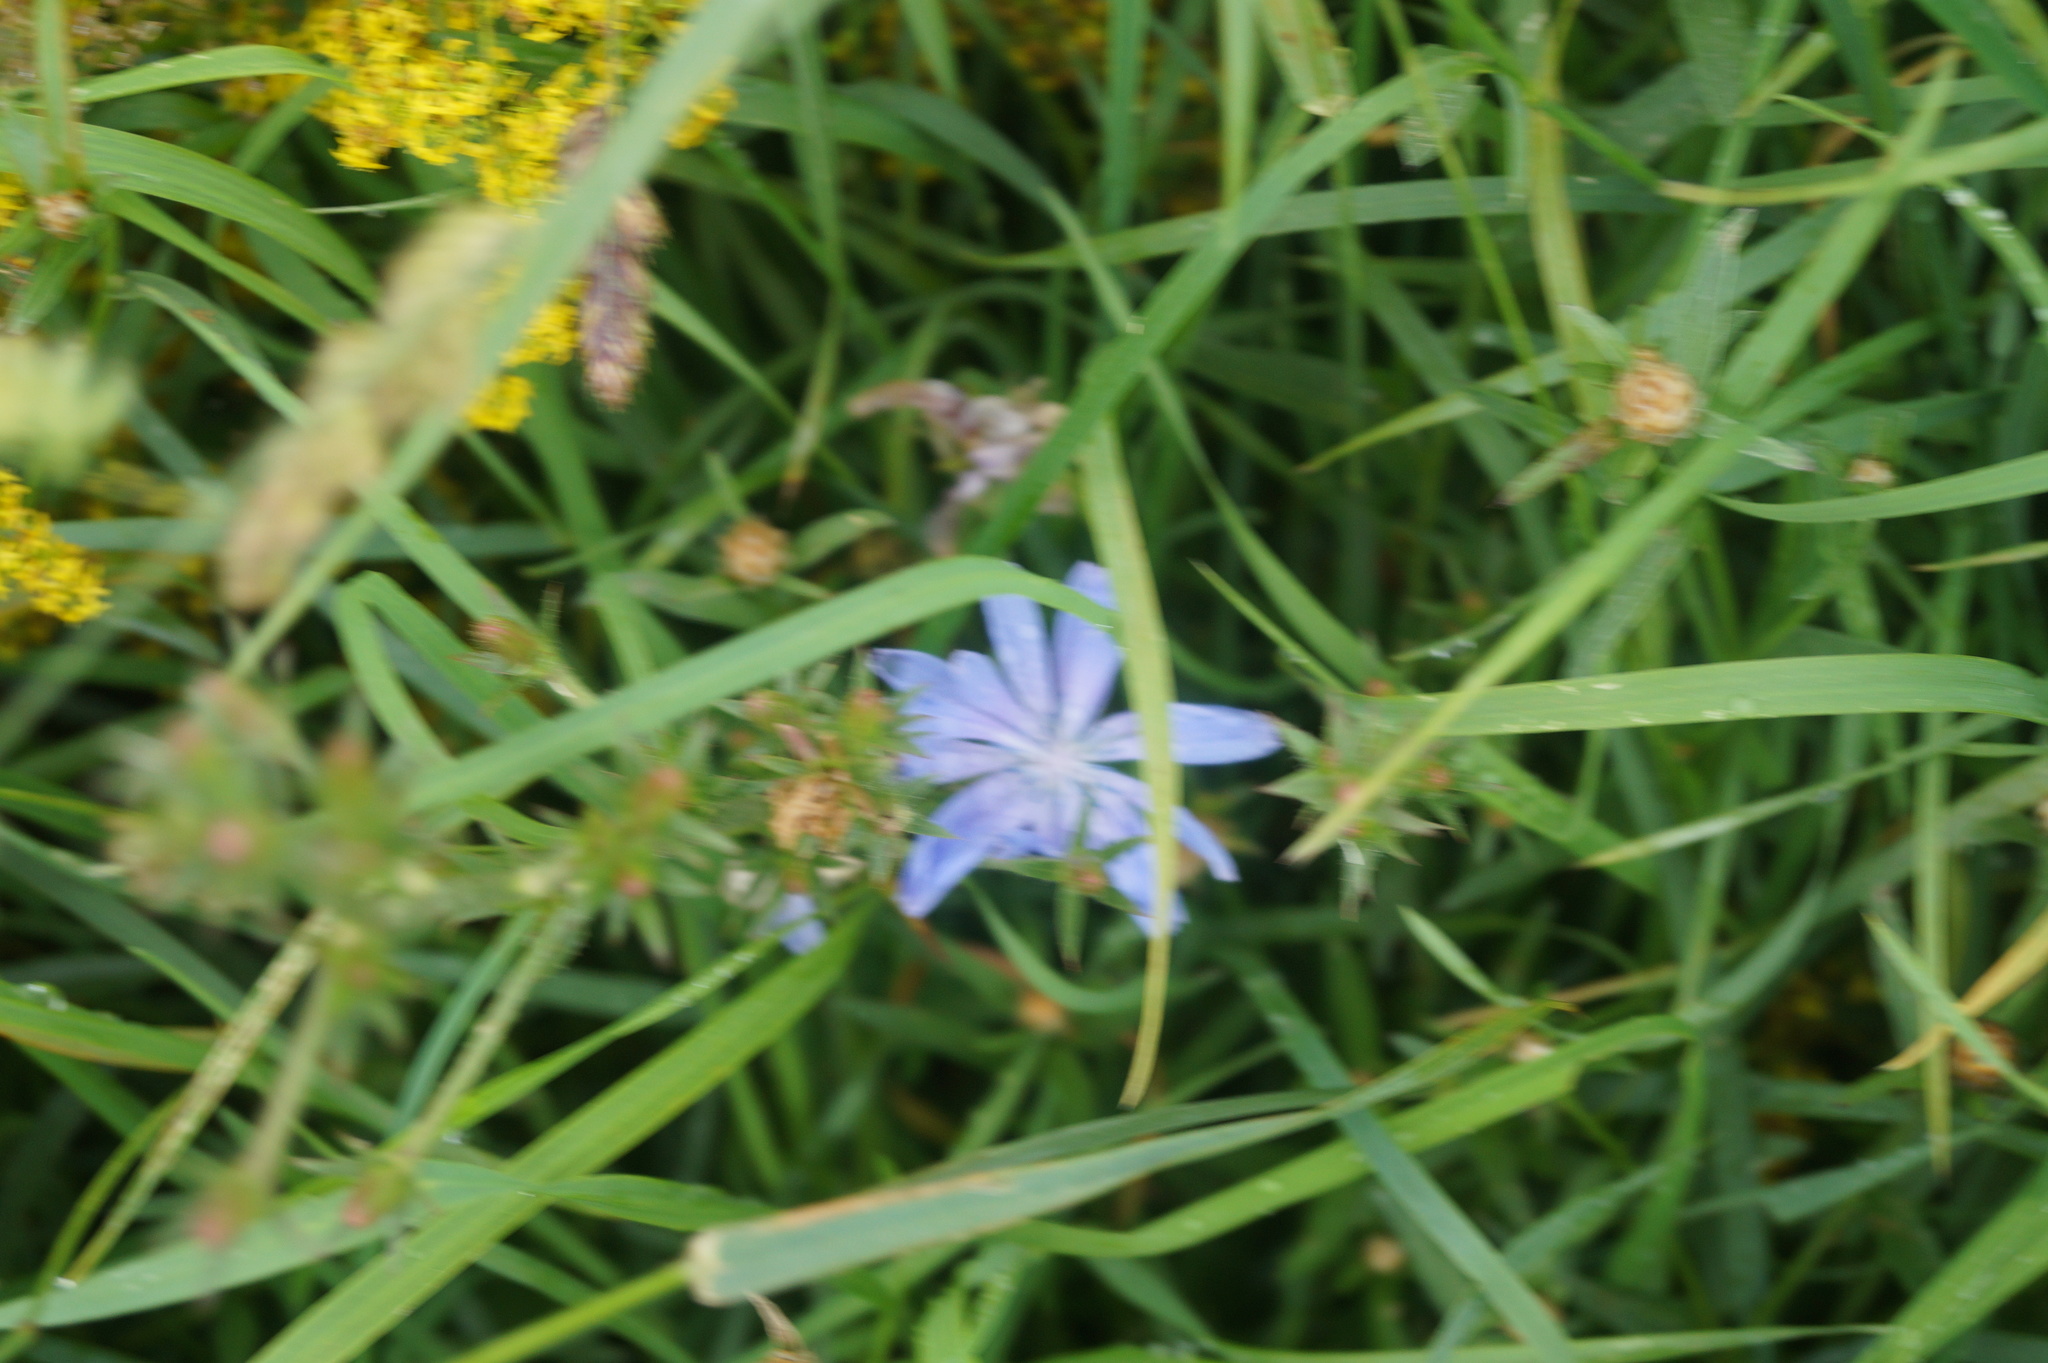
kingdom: Plantae
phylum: Tracheophyta
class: Magnoliopsida
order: Asterales
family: Asteraceae
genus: Cichorium
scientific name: Cichorium intybus
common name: Chicory
